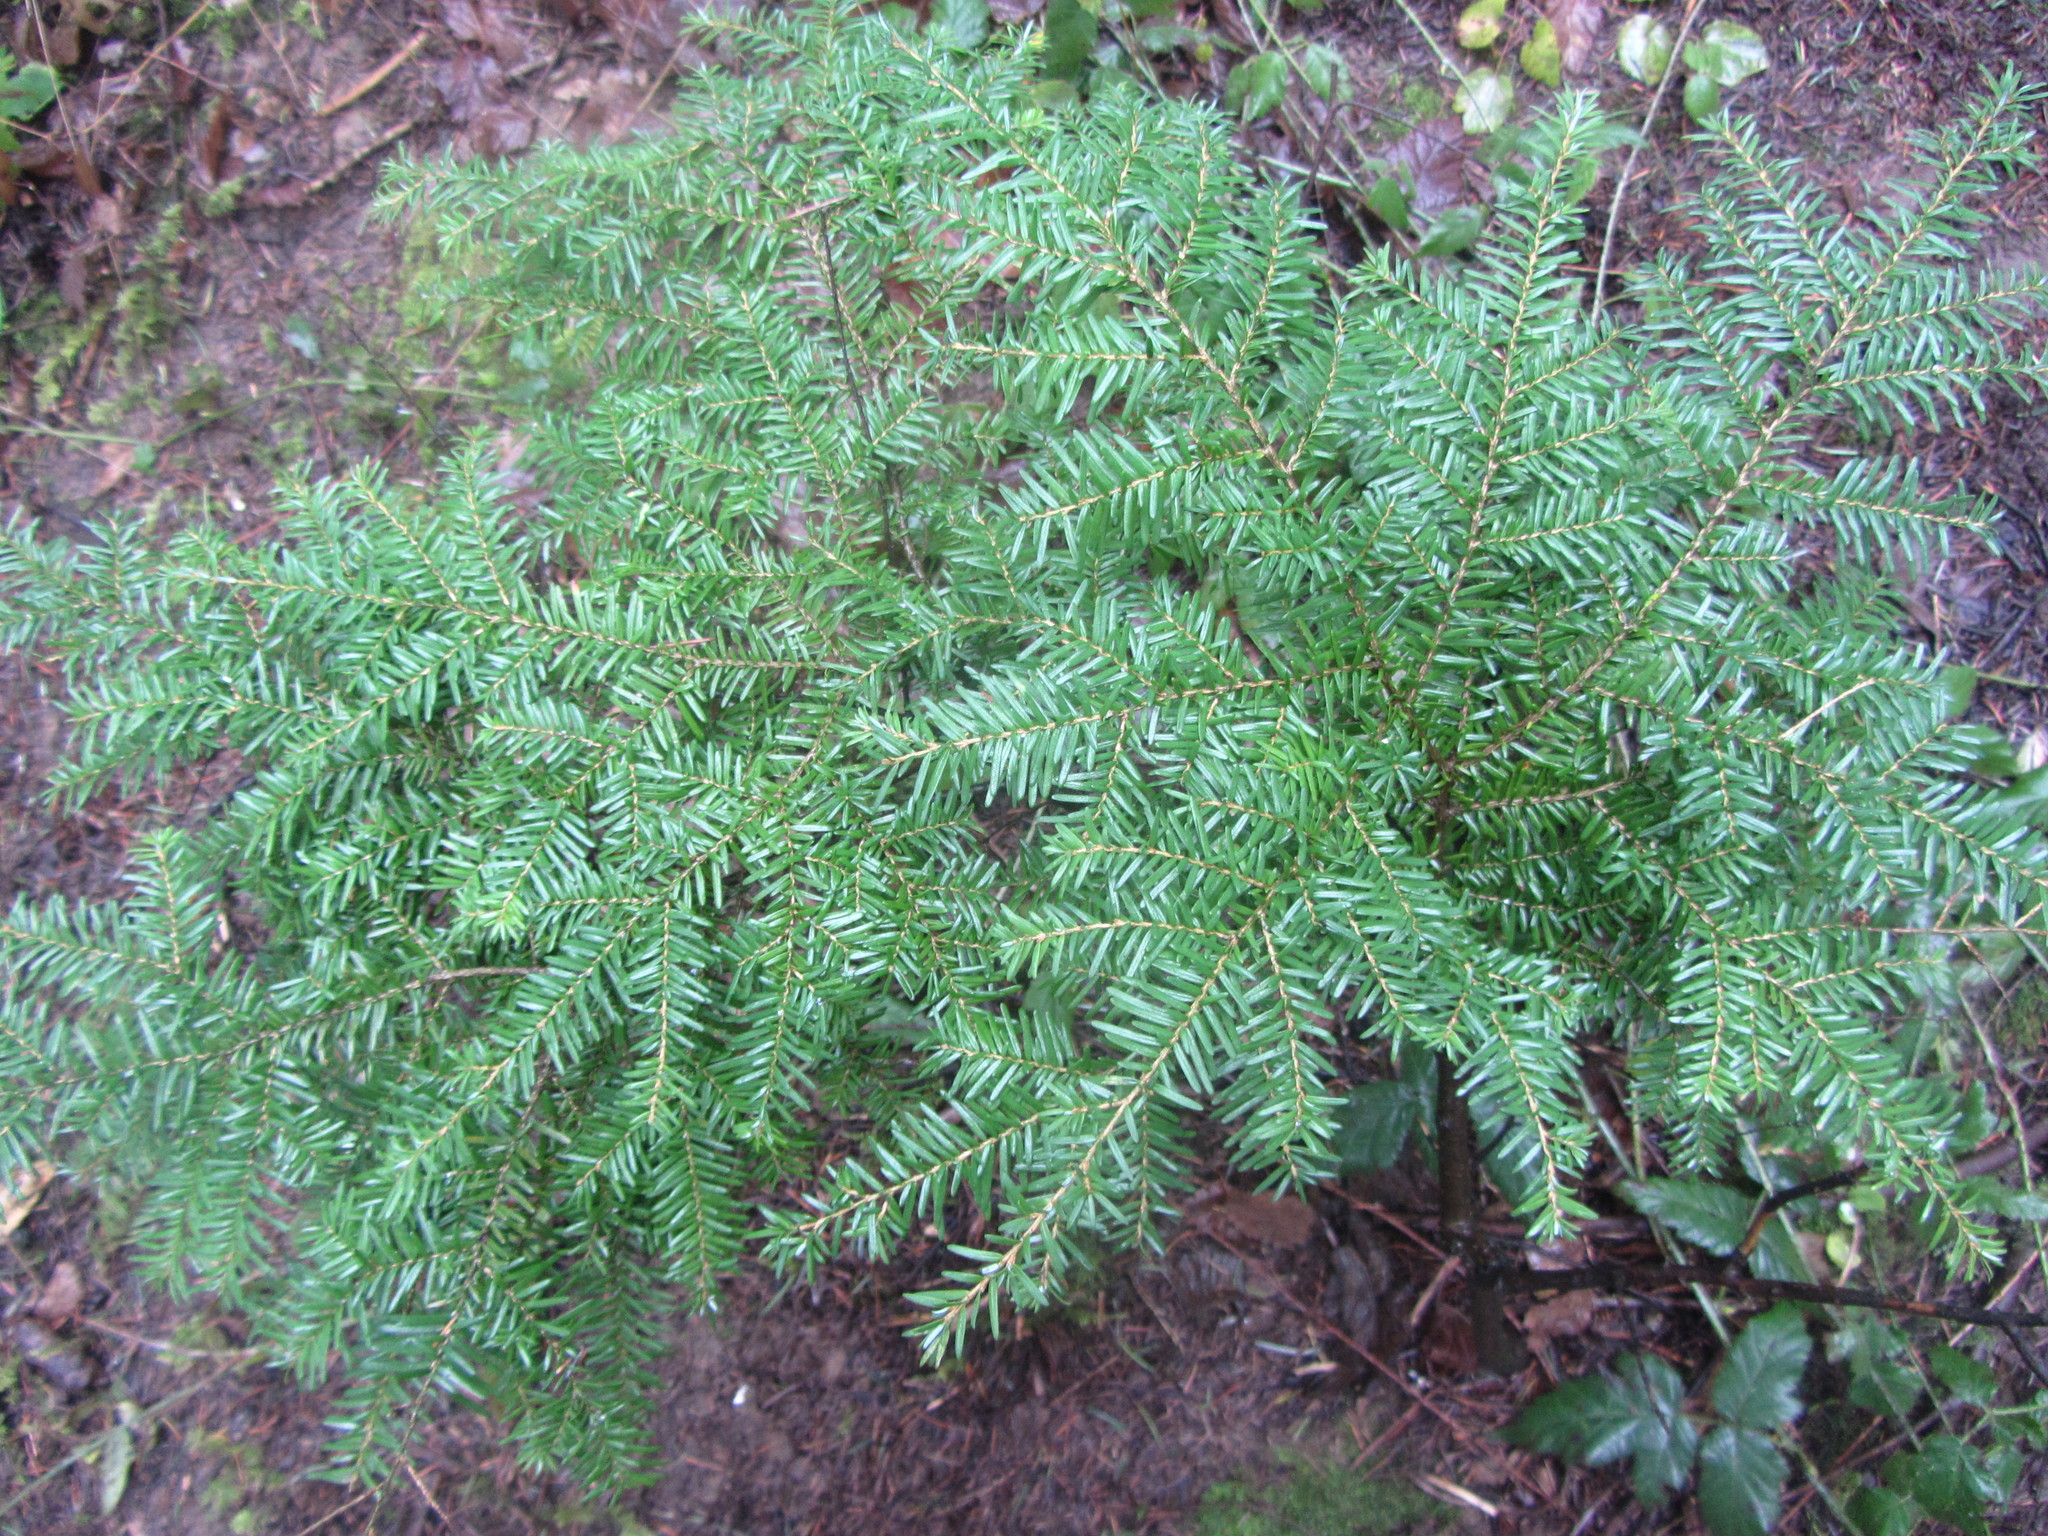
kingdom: Plantae
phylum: Tracheophyta
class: Pinopsida
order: Pinales
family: Pinaceae
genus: Tsuga
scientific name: Tsuga heterophylla
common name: Western hemlock
